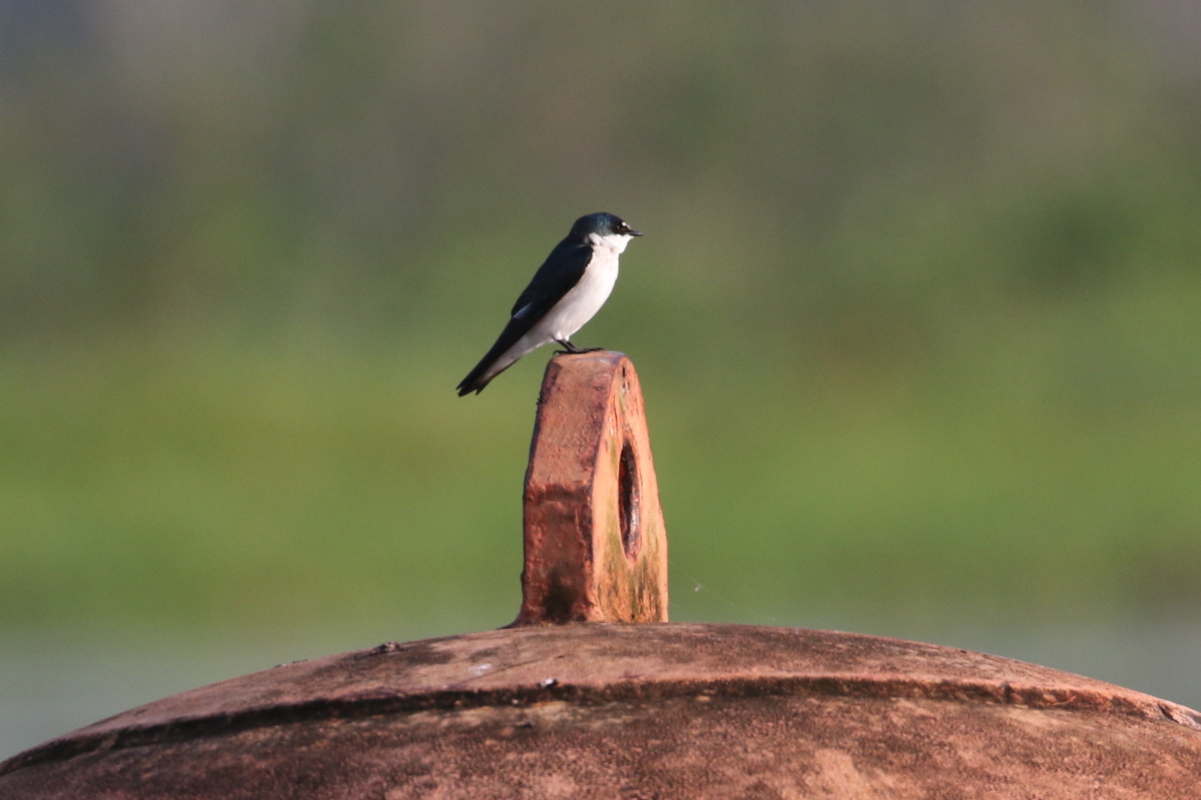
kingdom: Animalia
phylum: Chordata
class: Aves
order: Passeriformes
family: Hirundinidae
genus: Tachycineta
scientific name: Tachycineta albilinea
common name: Mangrove swallow
